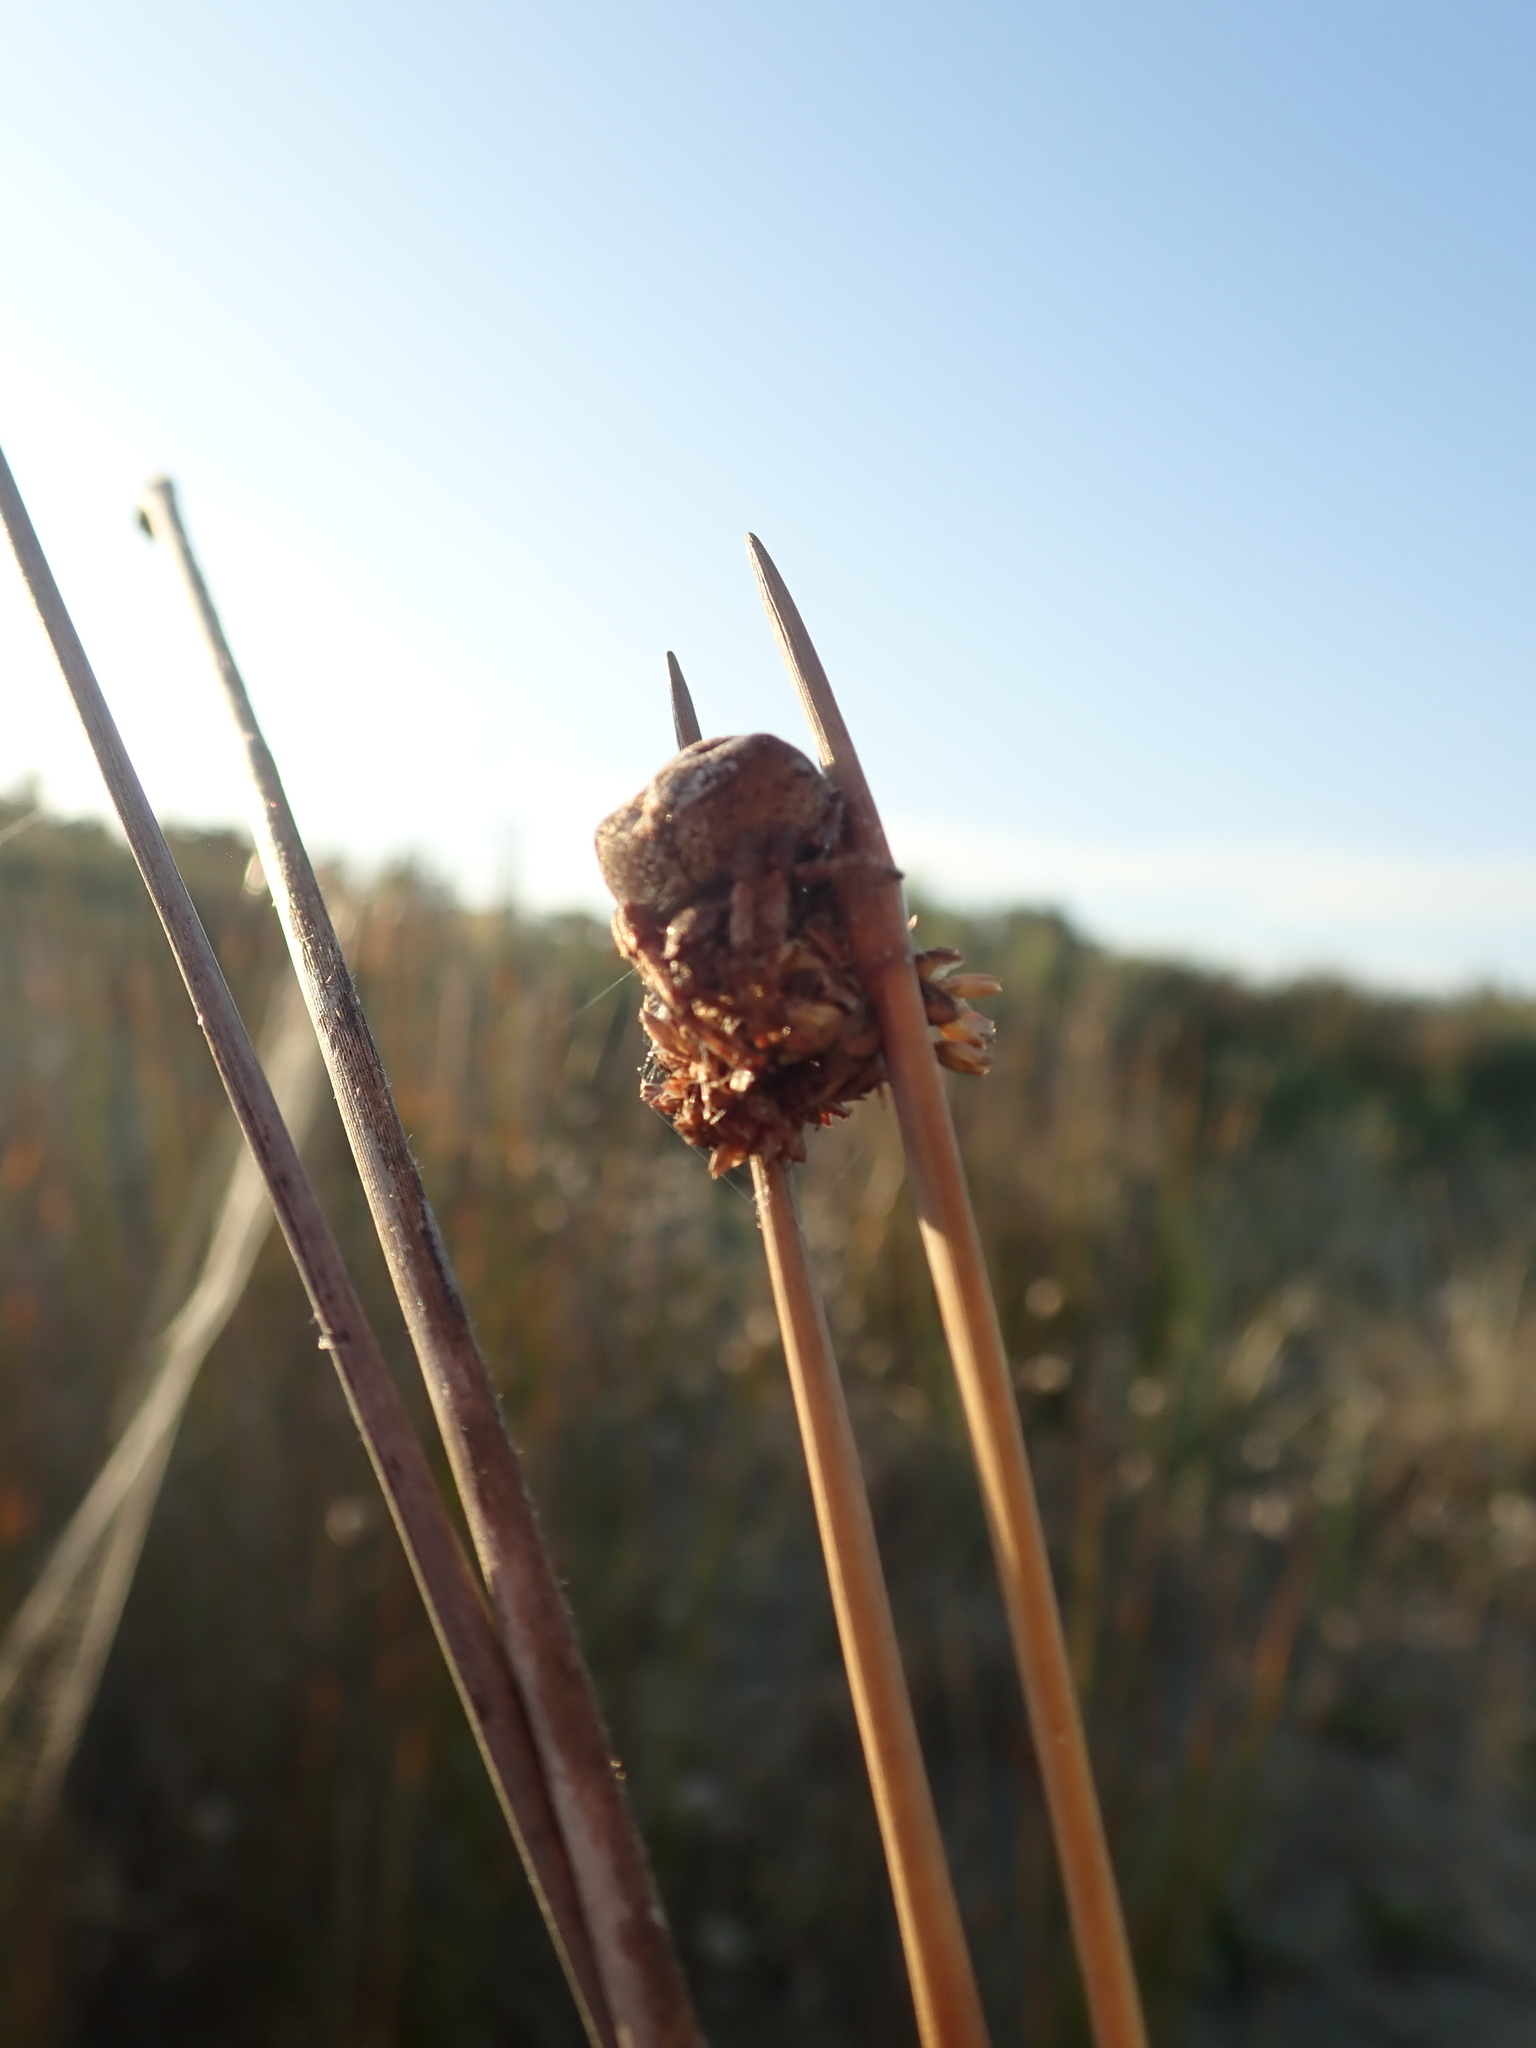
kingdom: Animalia
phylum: Arthropoda
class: Arachnida
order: Araneae
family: Araneidae
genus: Eriophora
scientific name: Eriophora pustulosa
